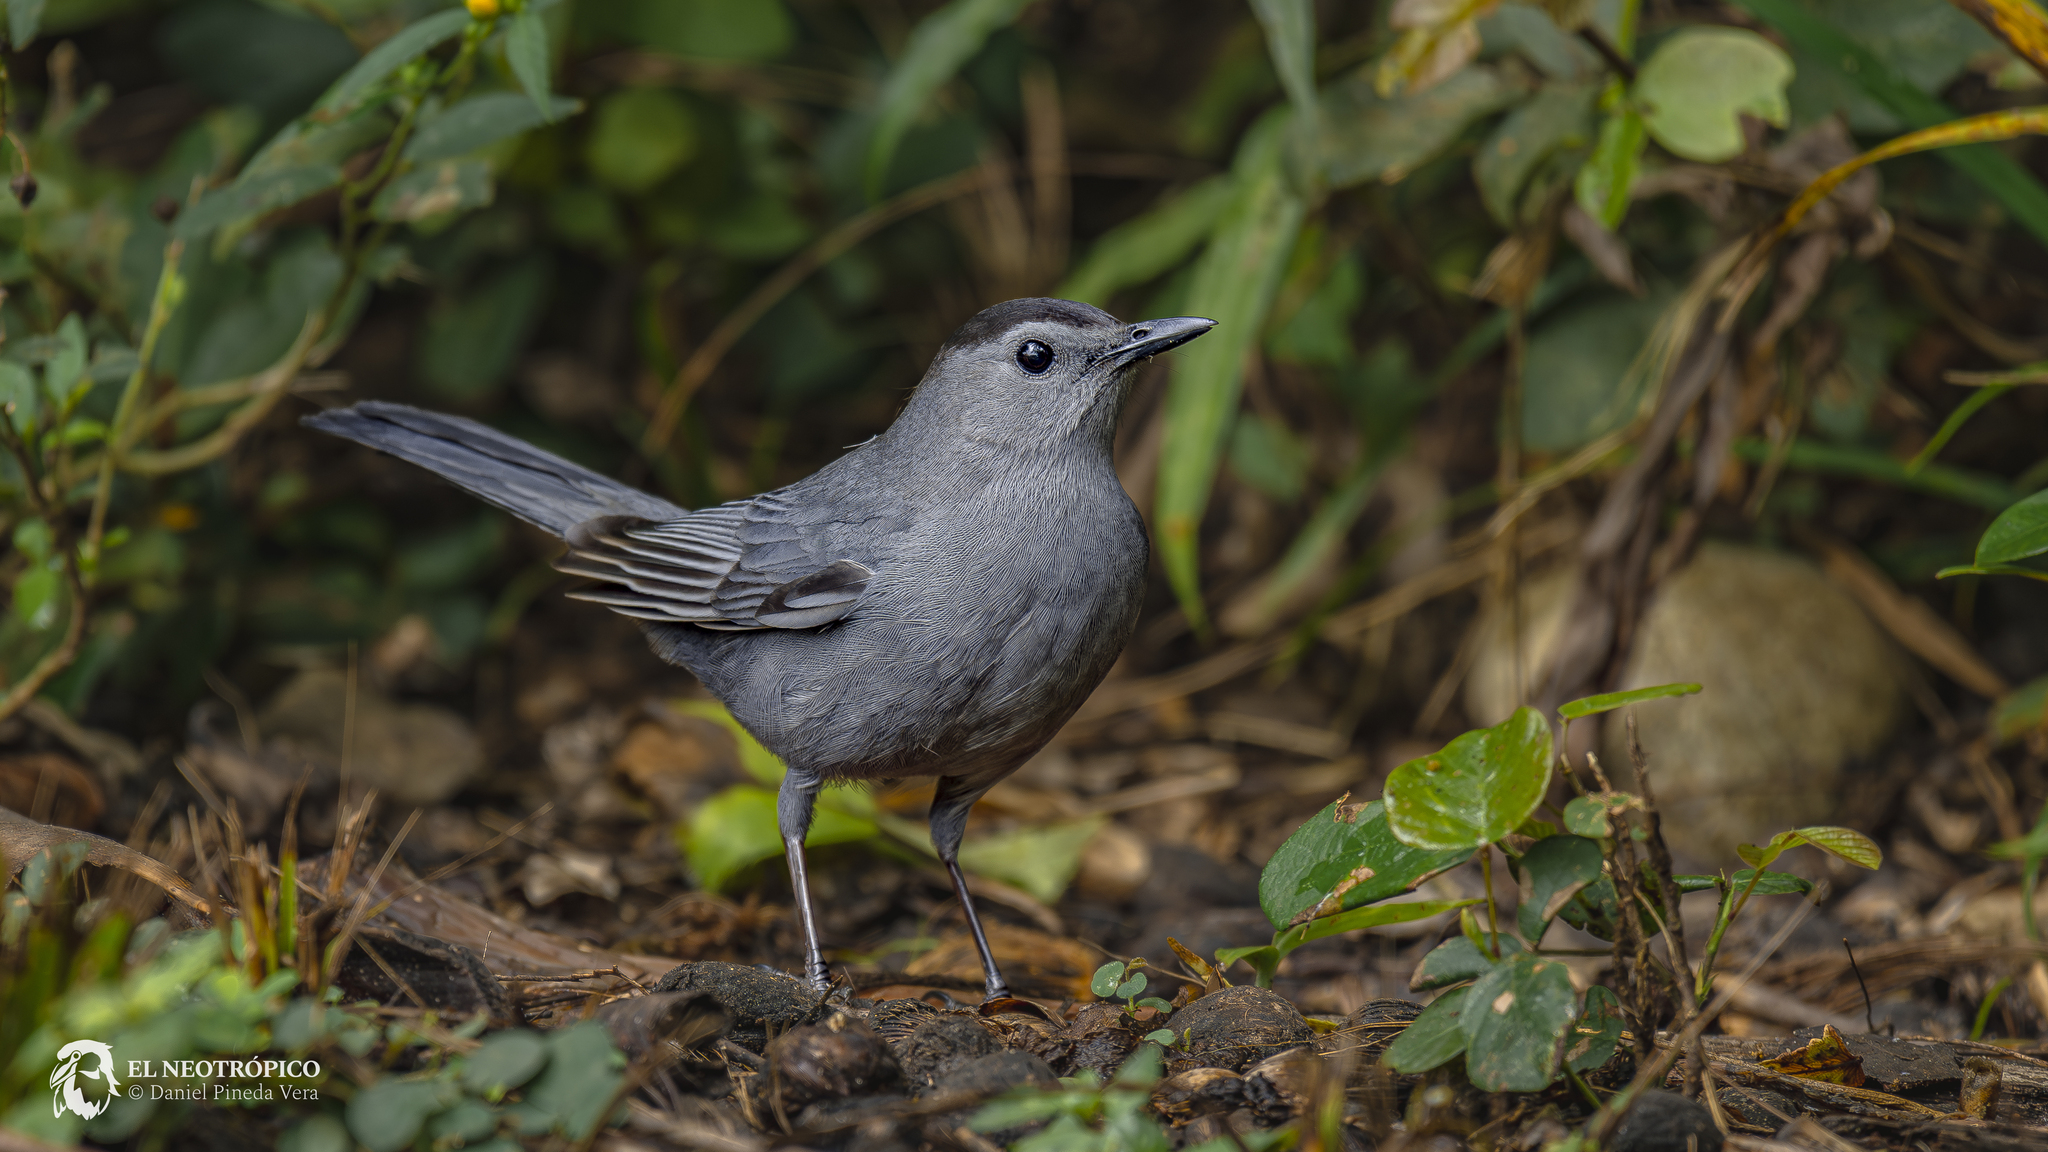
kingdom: Animalia
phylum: Chordata
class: Aves
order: Passeriformes
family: Mimidae
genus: Dumetella
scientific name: Dumetella carolinensis
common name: Gray catbird
